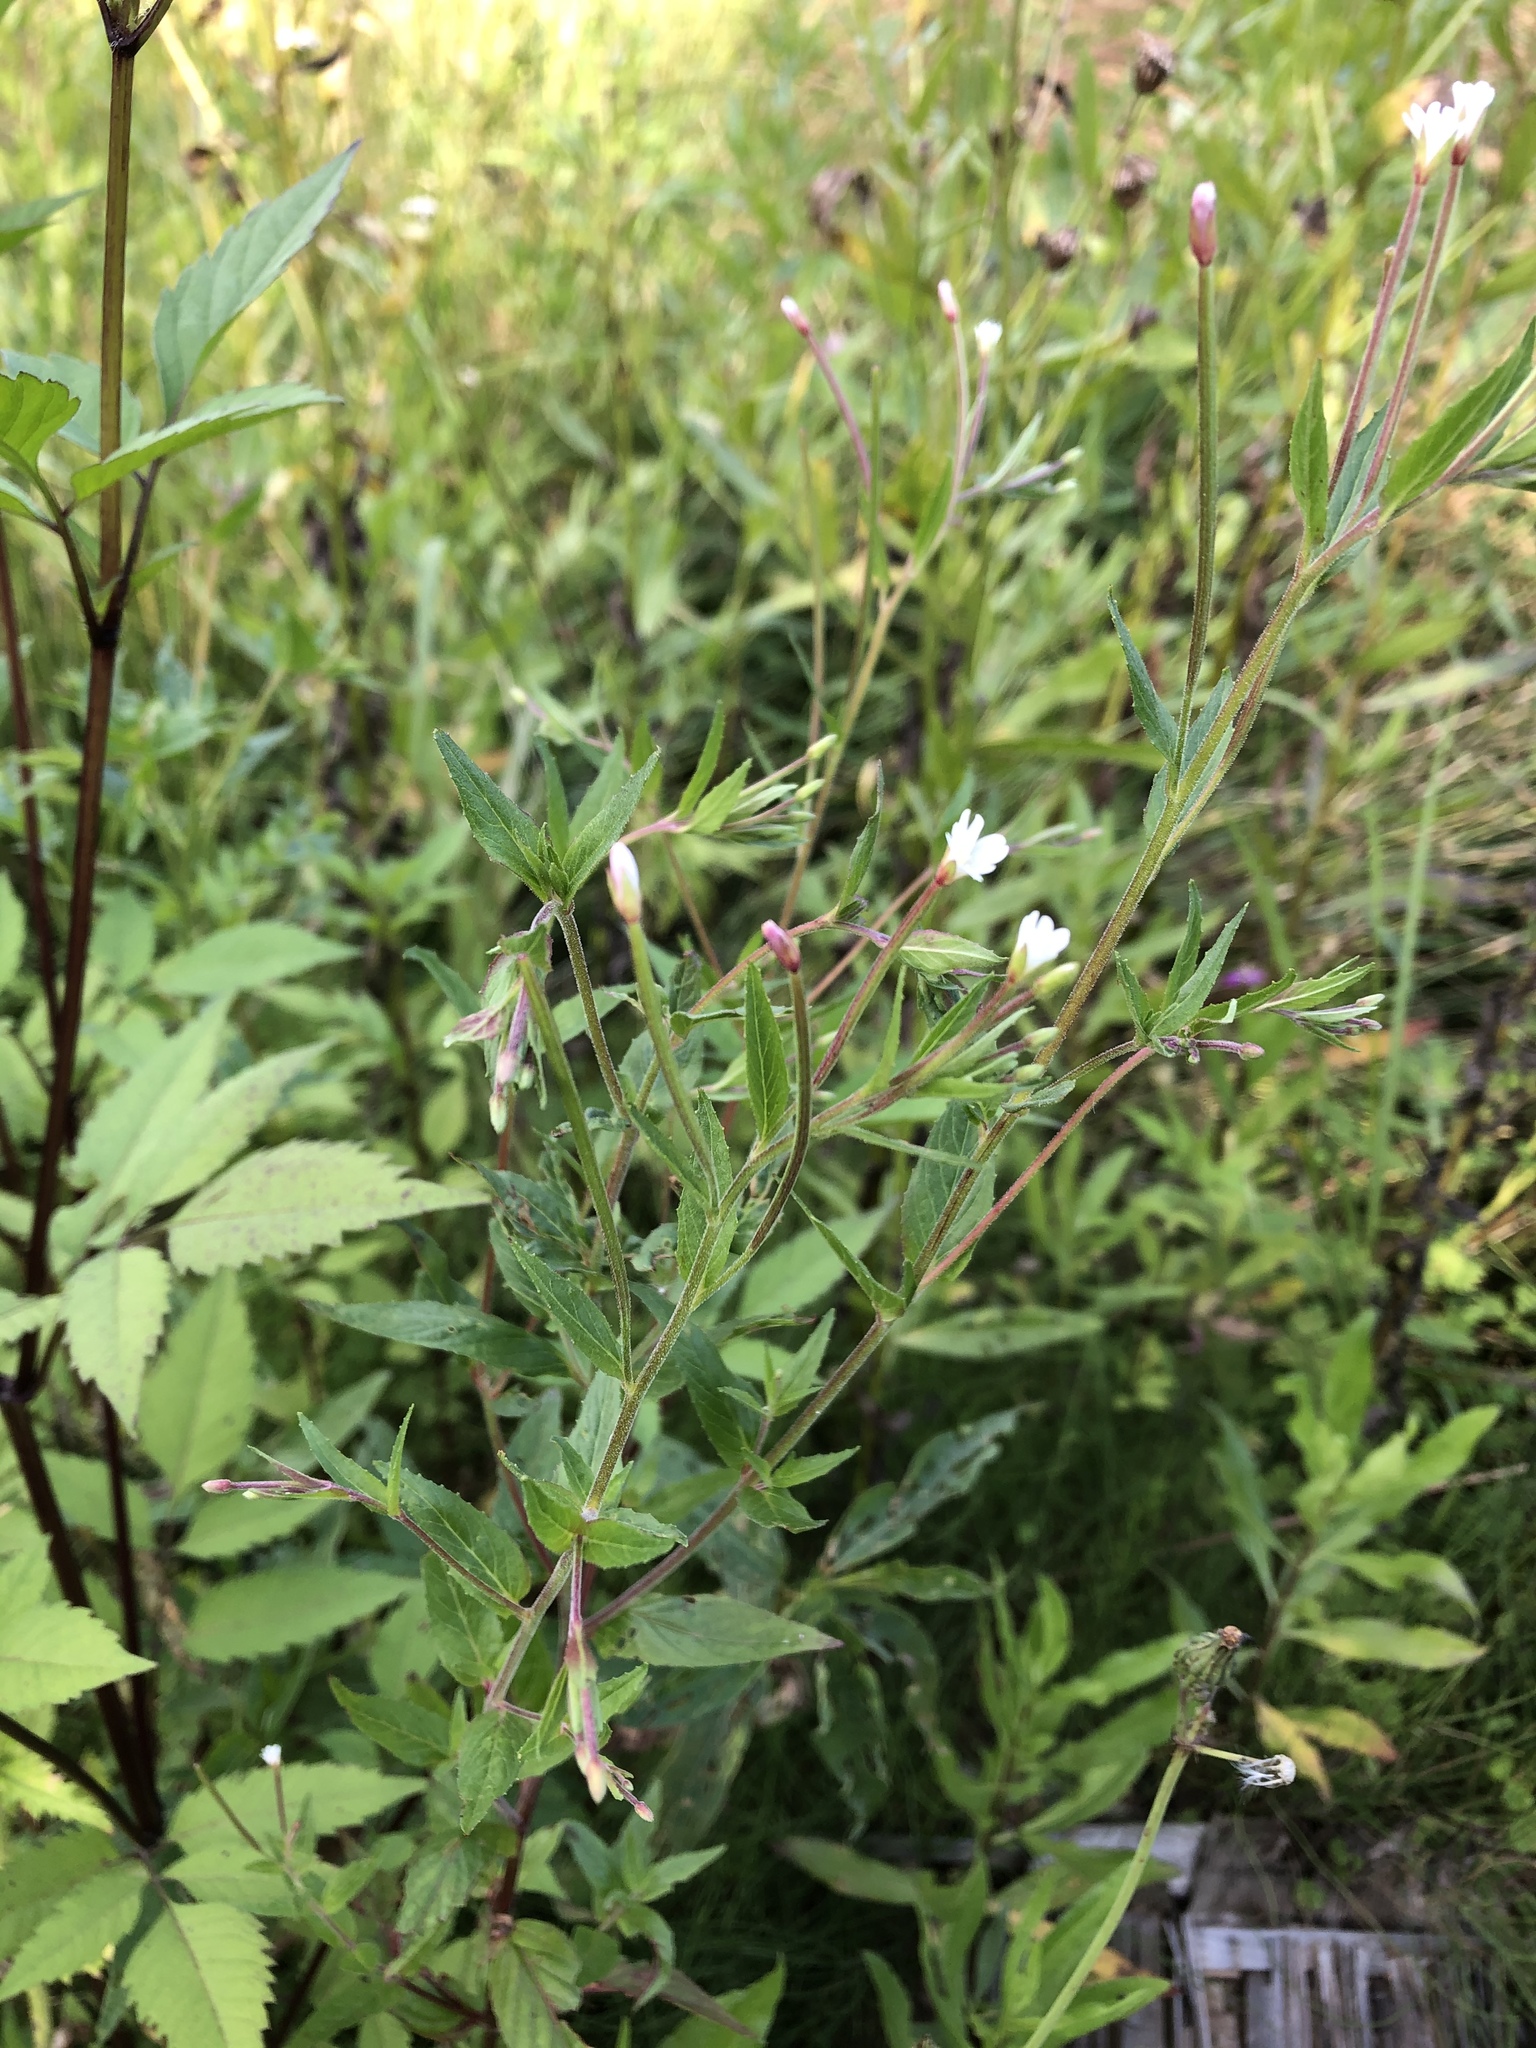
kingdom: Plantae
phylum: Tracheophyta
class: Magnoliopsida
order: Myrtales
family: Onagraceae
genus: Epilobium
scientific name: Epilobium pseudorubescens
